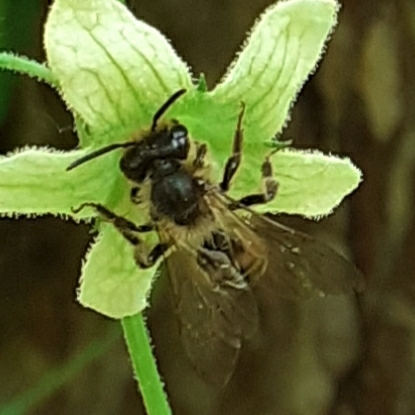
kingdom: Animalia
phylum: Arthropoda
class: Insecta
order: Hymenoptera
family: Andrenidae
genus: Andrena
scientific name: Andrena florea
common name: Bryony mining bee
